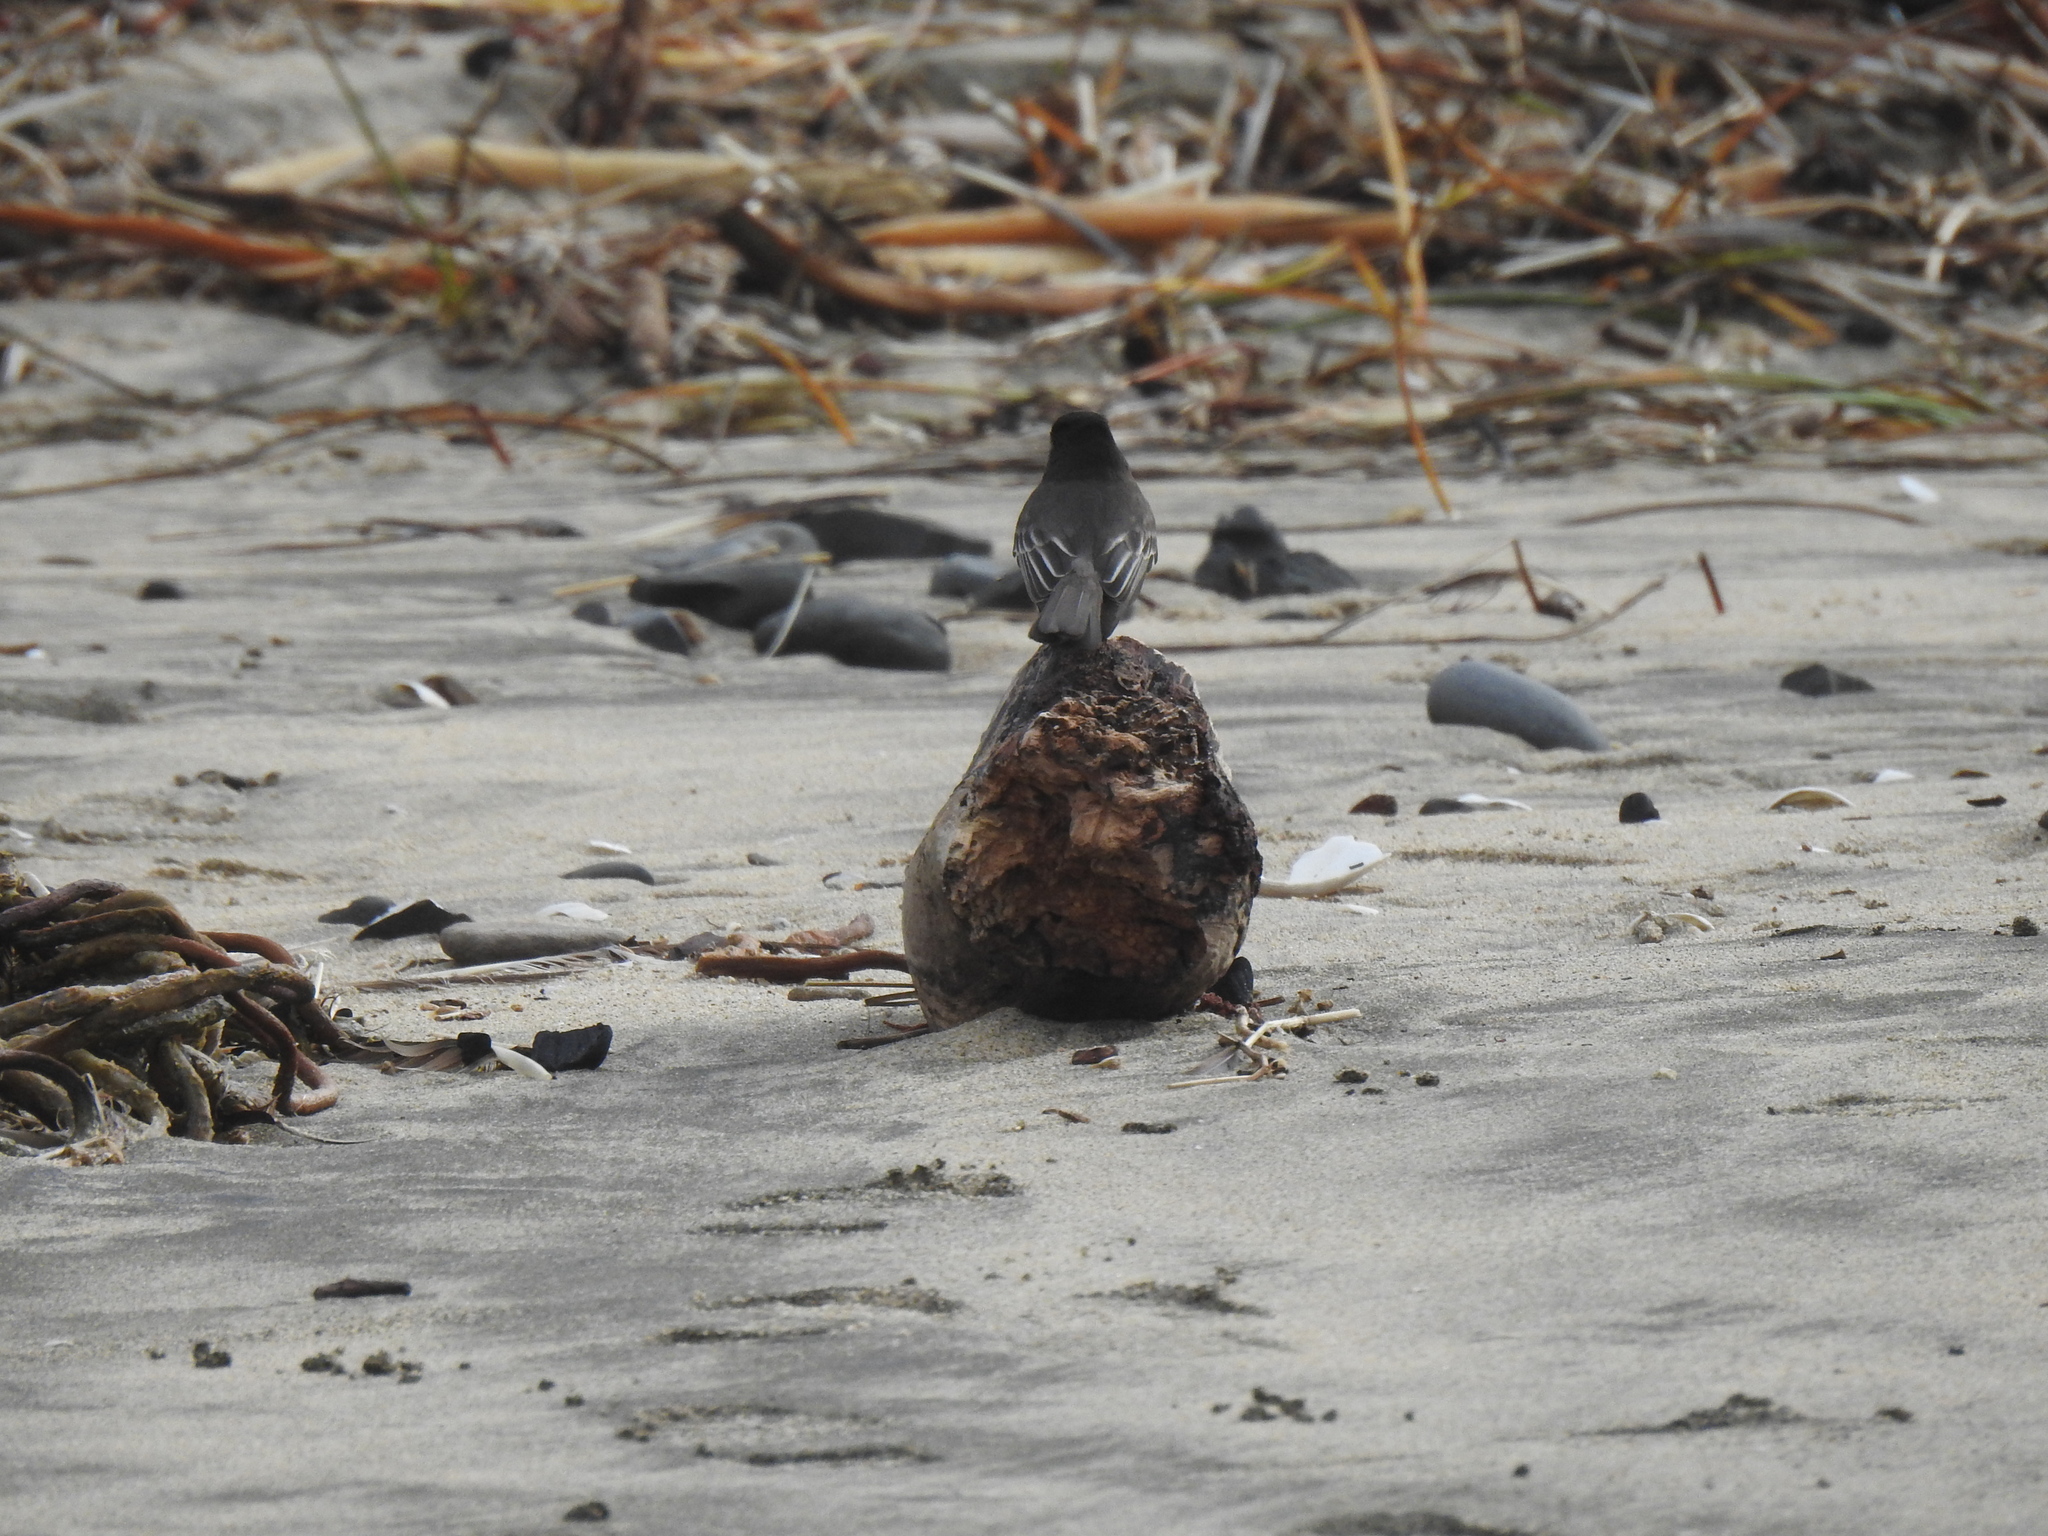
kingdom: Animalia
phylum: Chordata
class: Aves
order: Passeriformes
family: Tyrannidae
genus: Sayornis
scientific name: Sayornis nigricans
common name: Black phoebe
